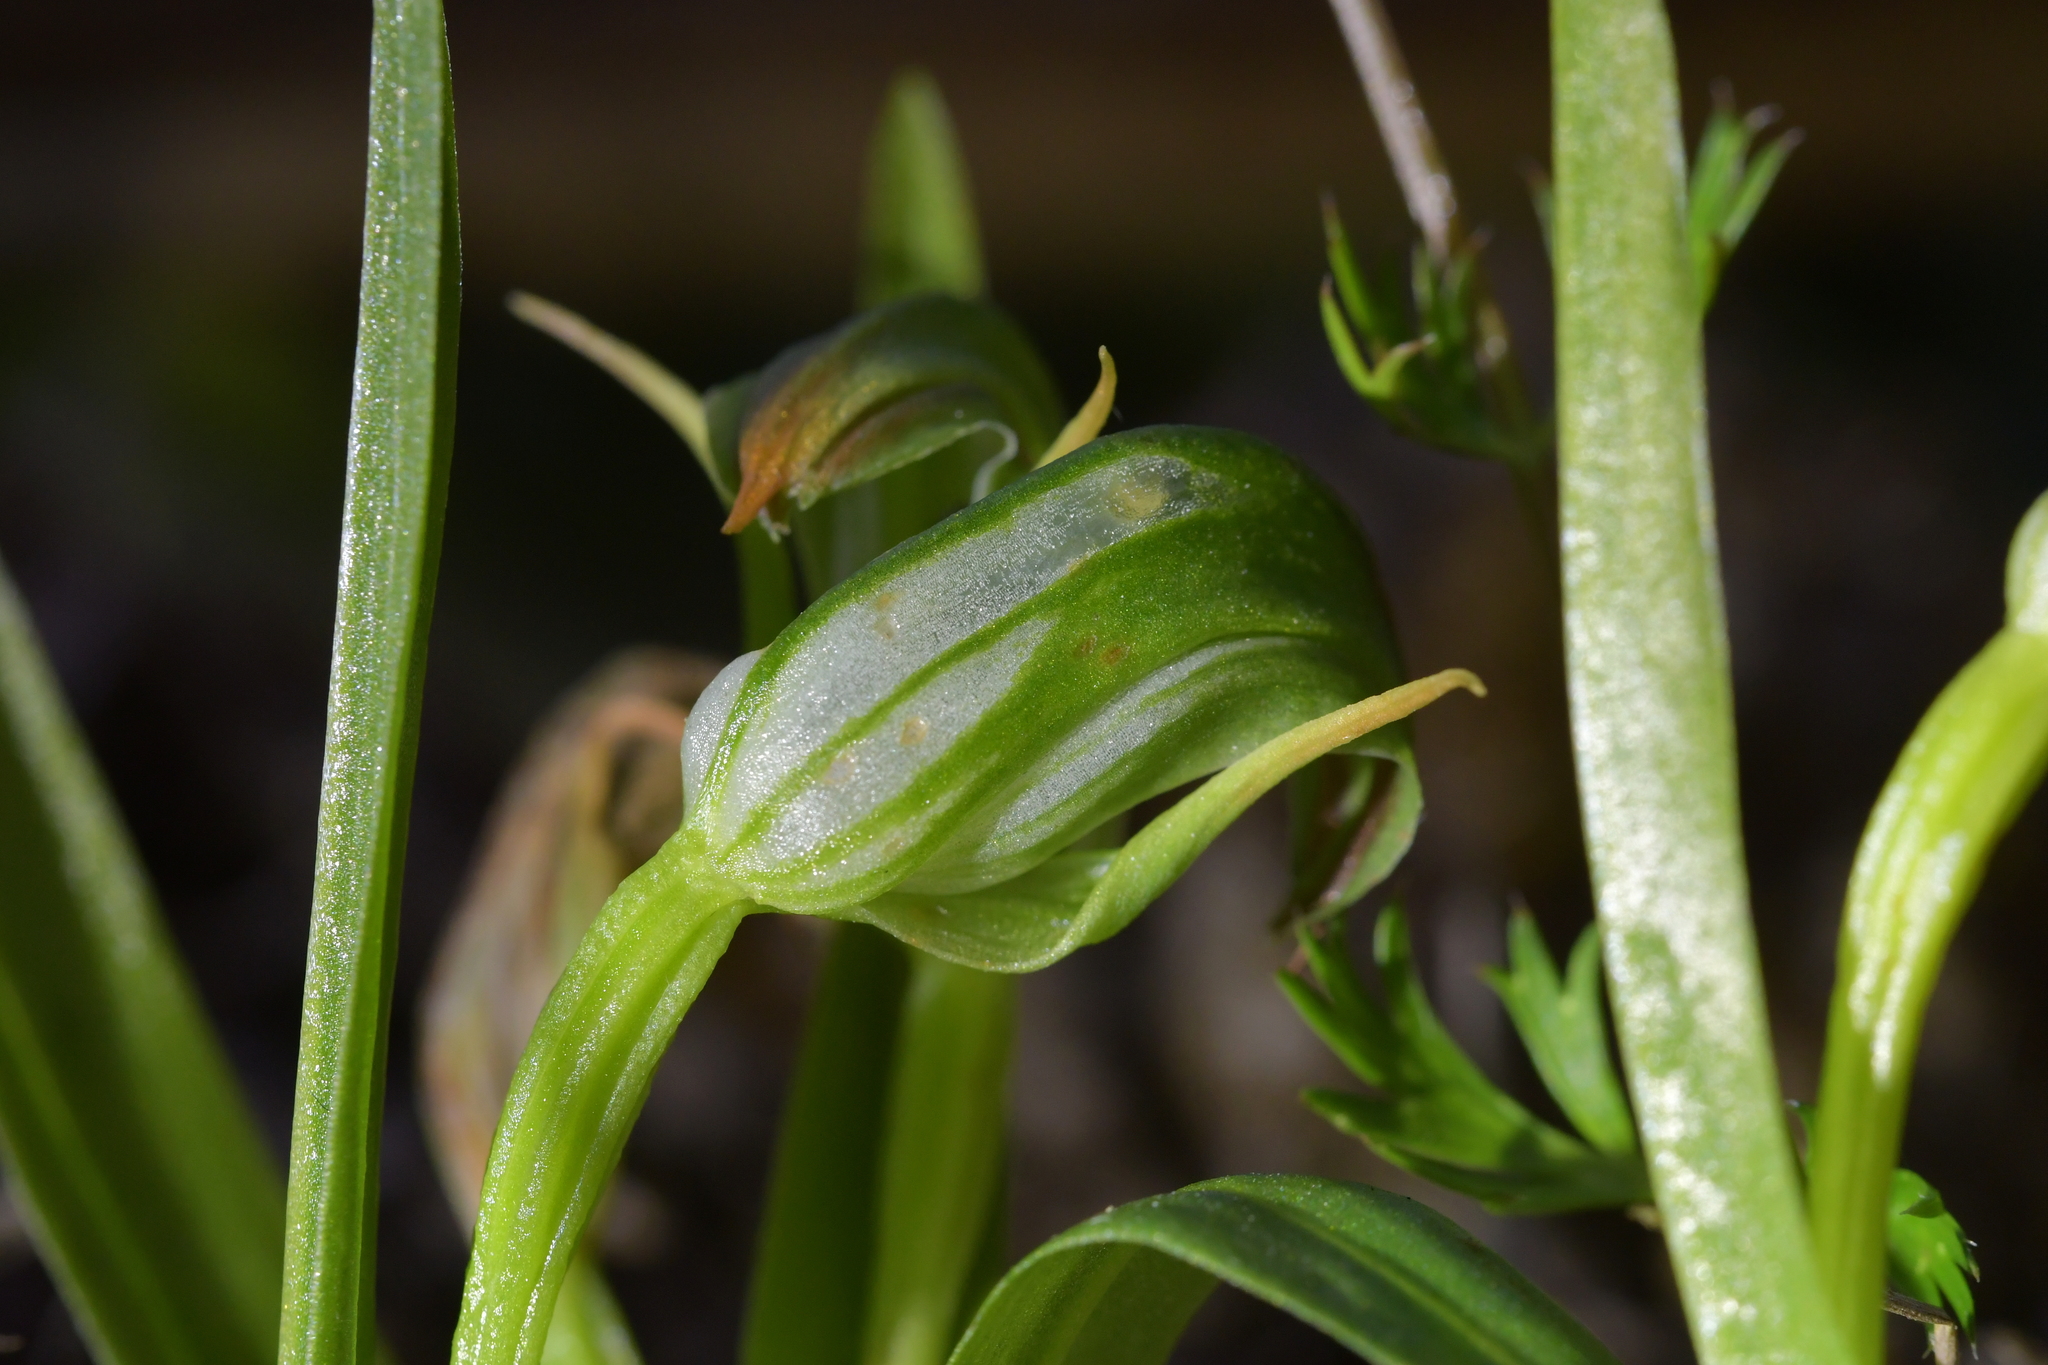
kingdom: Plantae
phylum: Tracheophyta
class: Liliopsida
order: Asparagales
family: Orchidaceae
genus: Pterostylis
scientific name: Pterostylis montana
